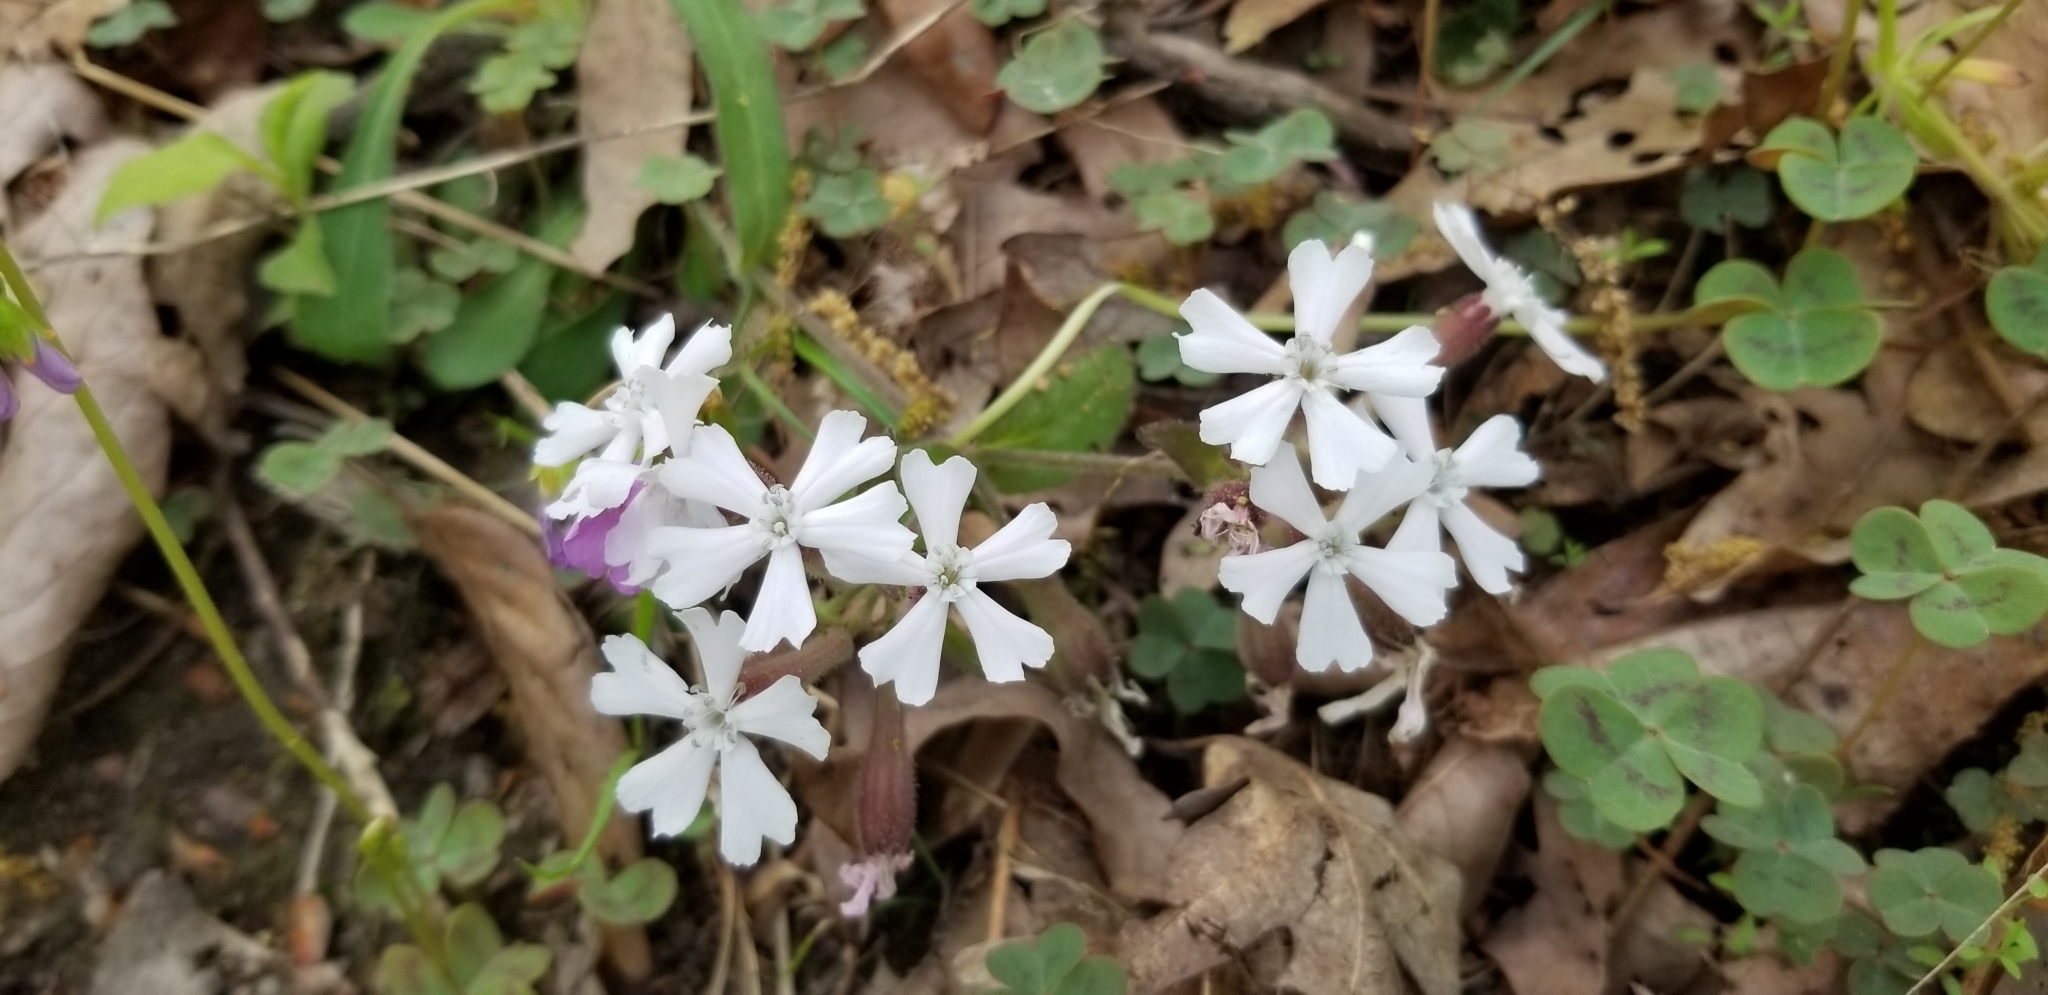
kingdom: Plantae
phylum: Tracheophyta
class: Magnoliopsida
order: Caryophyllales
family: Caryophyllaceae
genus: Silene
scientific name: Silene caroliniana
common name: Sticky catchfly
